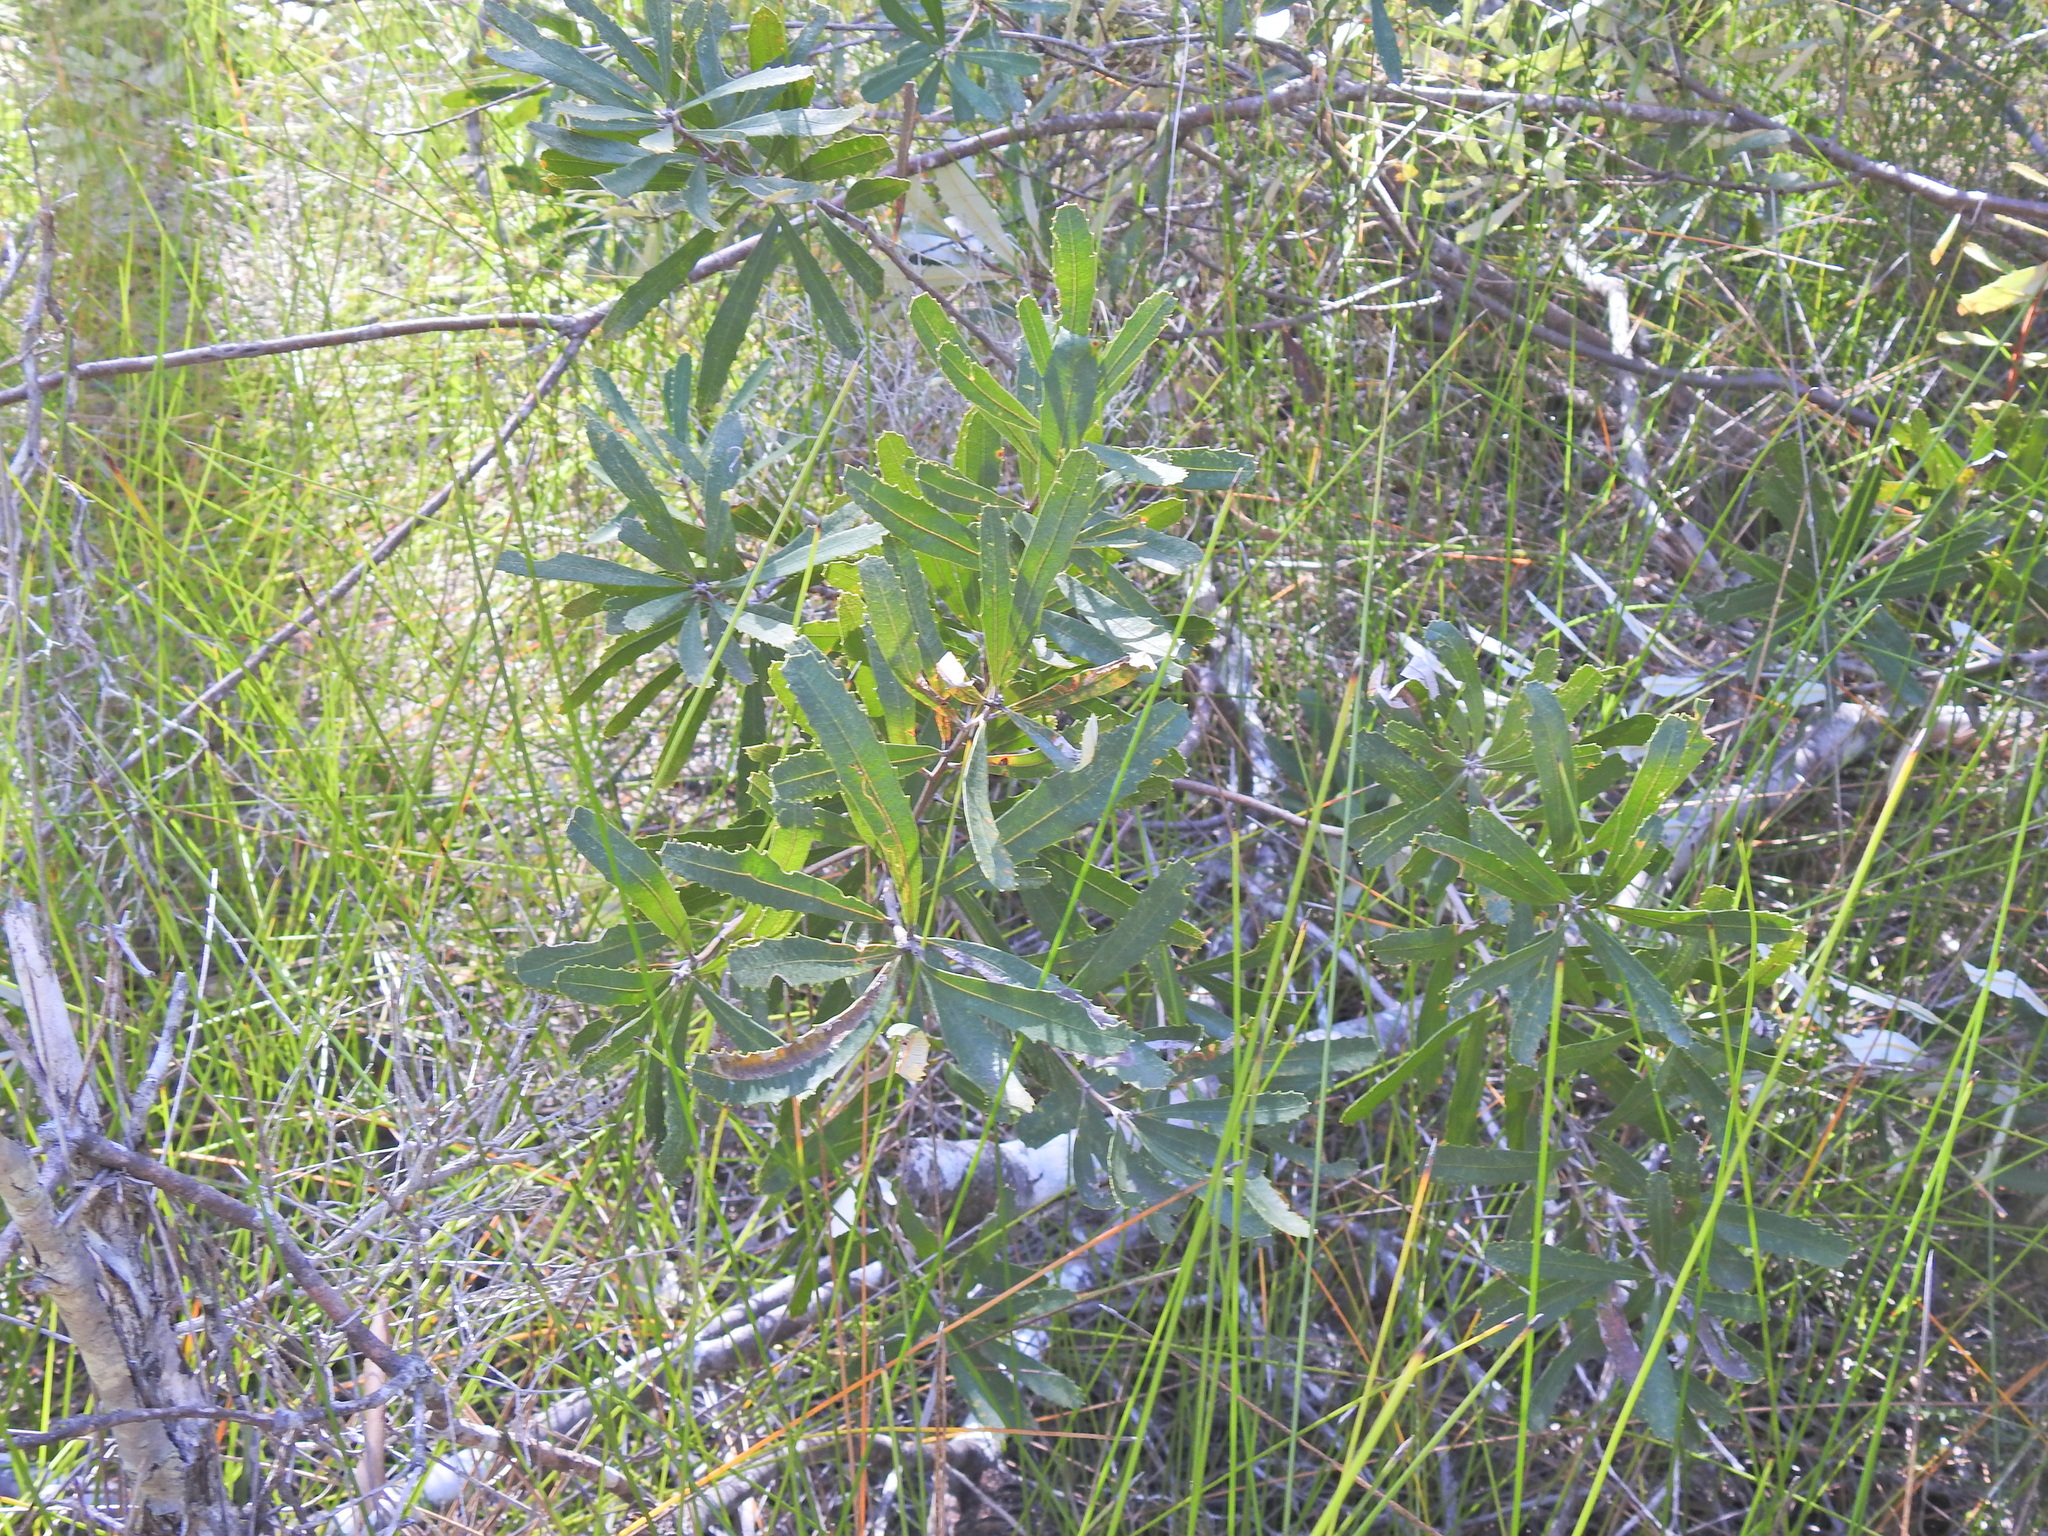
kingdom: Plantae
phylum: Tracheophyta
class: Magnoliopsida
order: Proteales
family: Proteaceae
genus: Banksia
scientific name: Banksia oblongifolia
